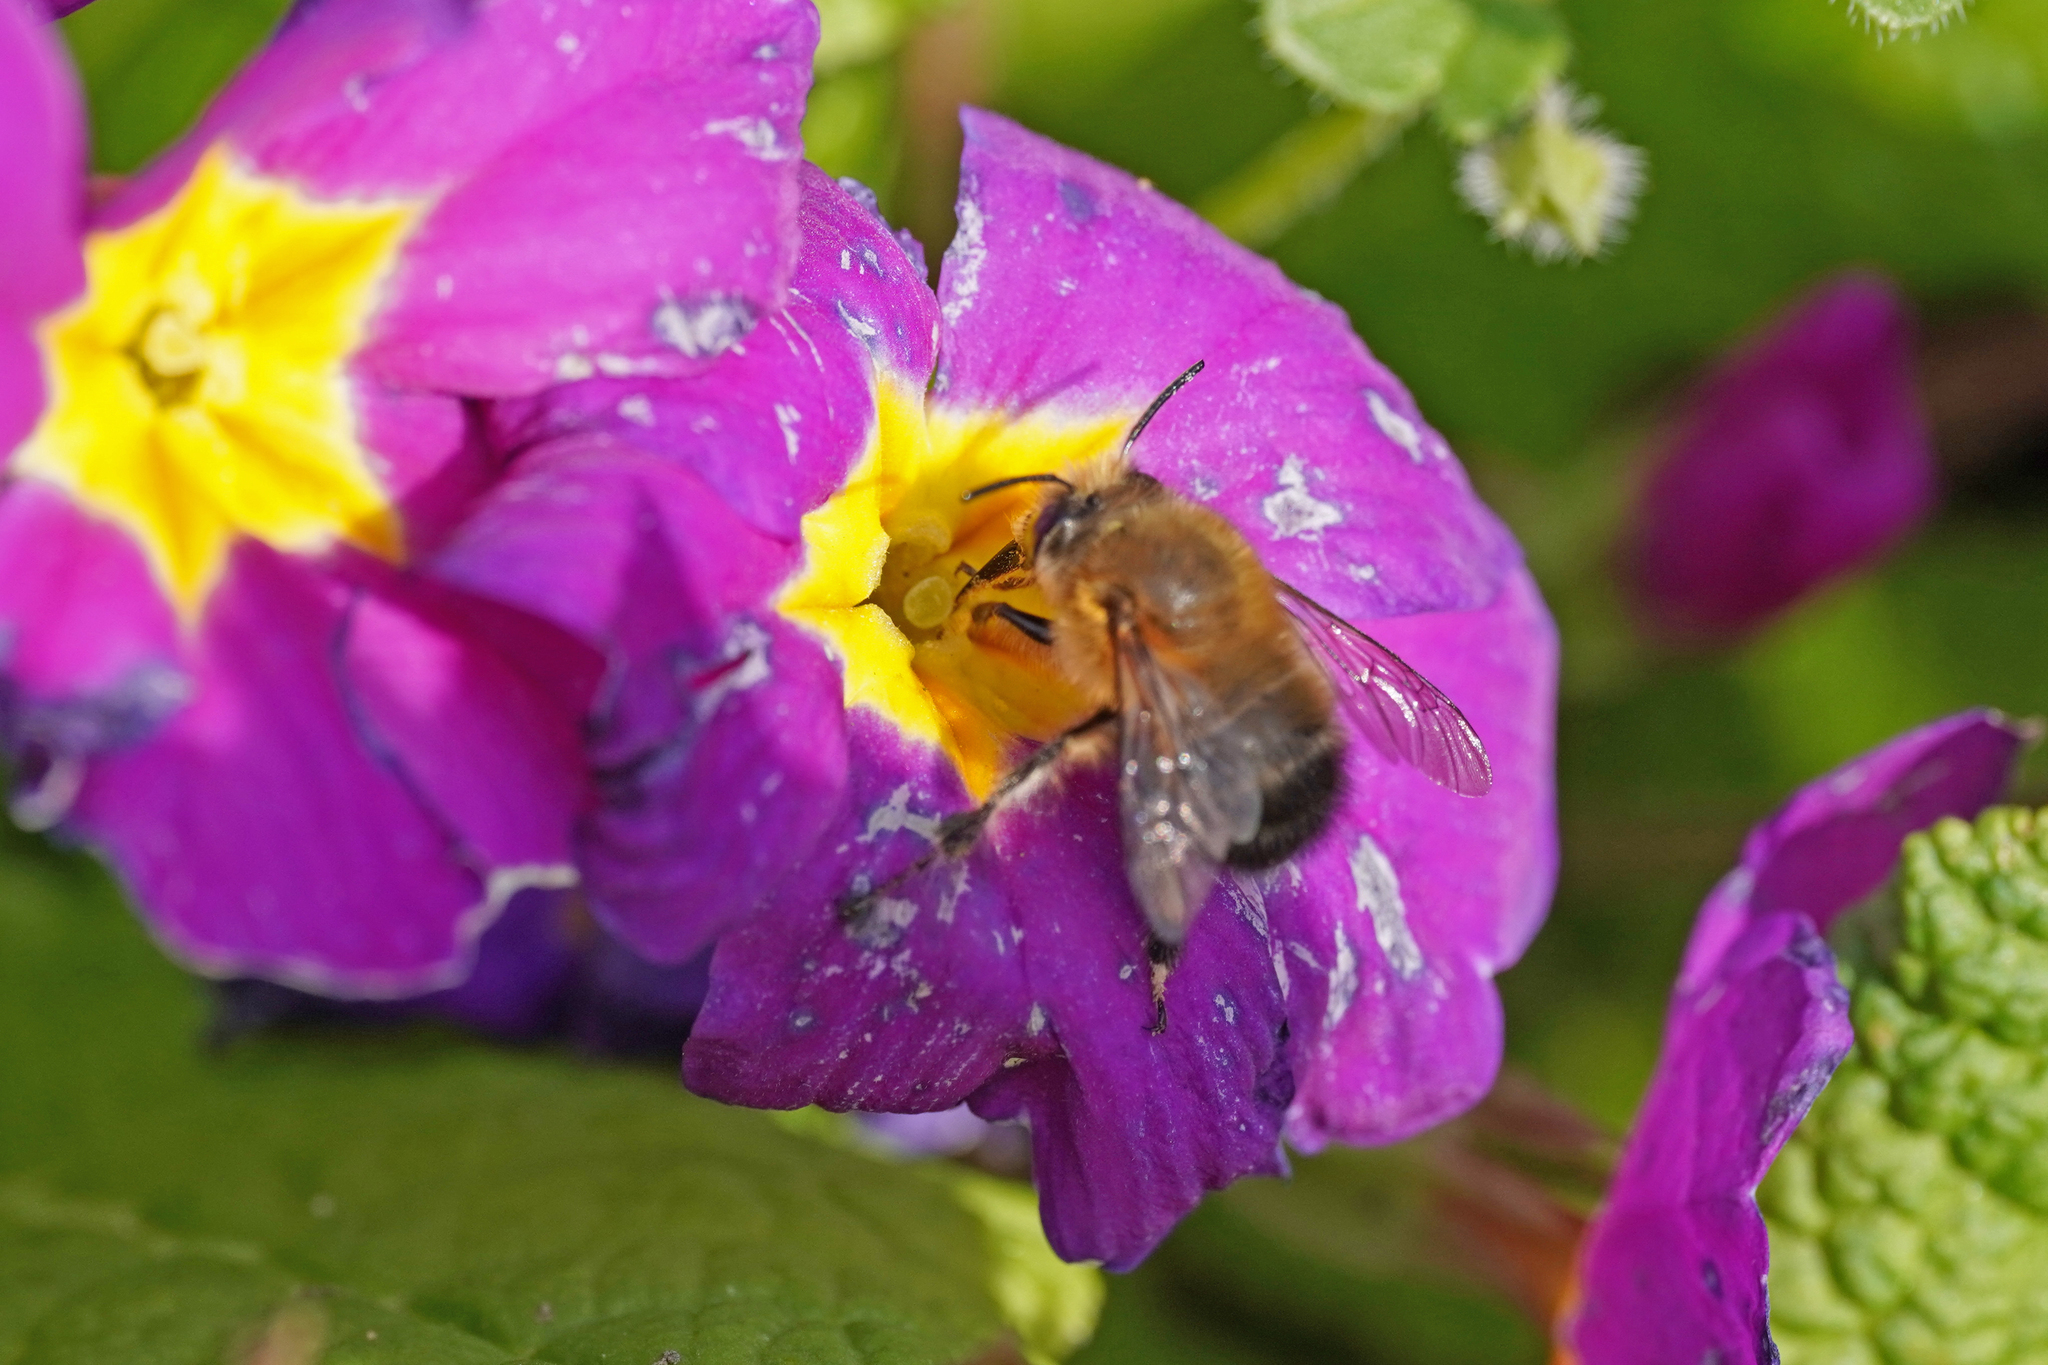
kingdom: Animalia
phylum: Arthropoda
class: Insecta
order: Hymenoptera
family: Apidae
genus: Anthophora
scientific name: Anthophora plumipes
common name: Hairy-footed flower bee
